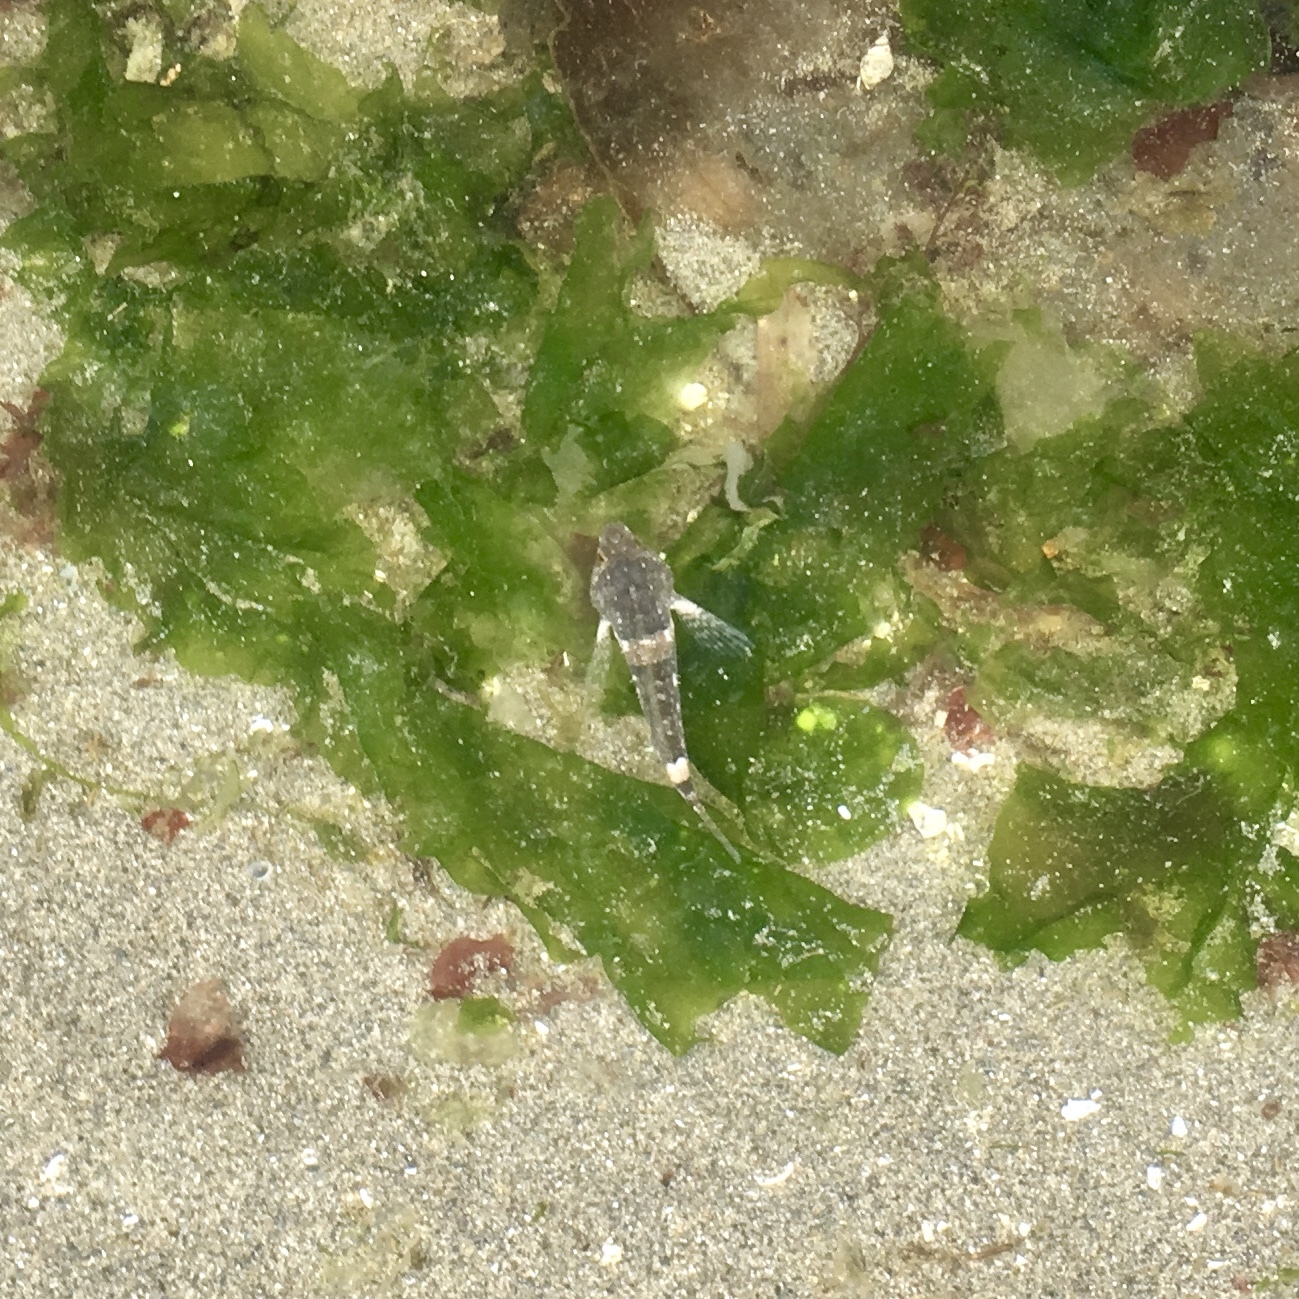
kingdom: Animalia
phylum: Chordata
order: Scorpaeniformes
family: Cottidae
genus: Oligocottus
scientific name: Oligocottus maculosus
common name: Tidepool sculpin
